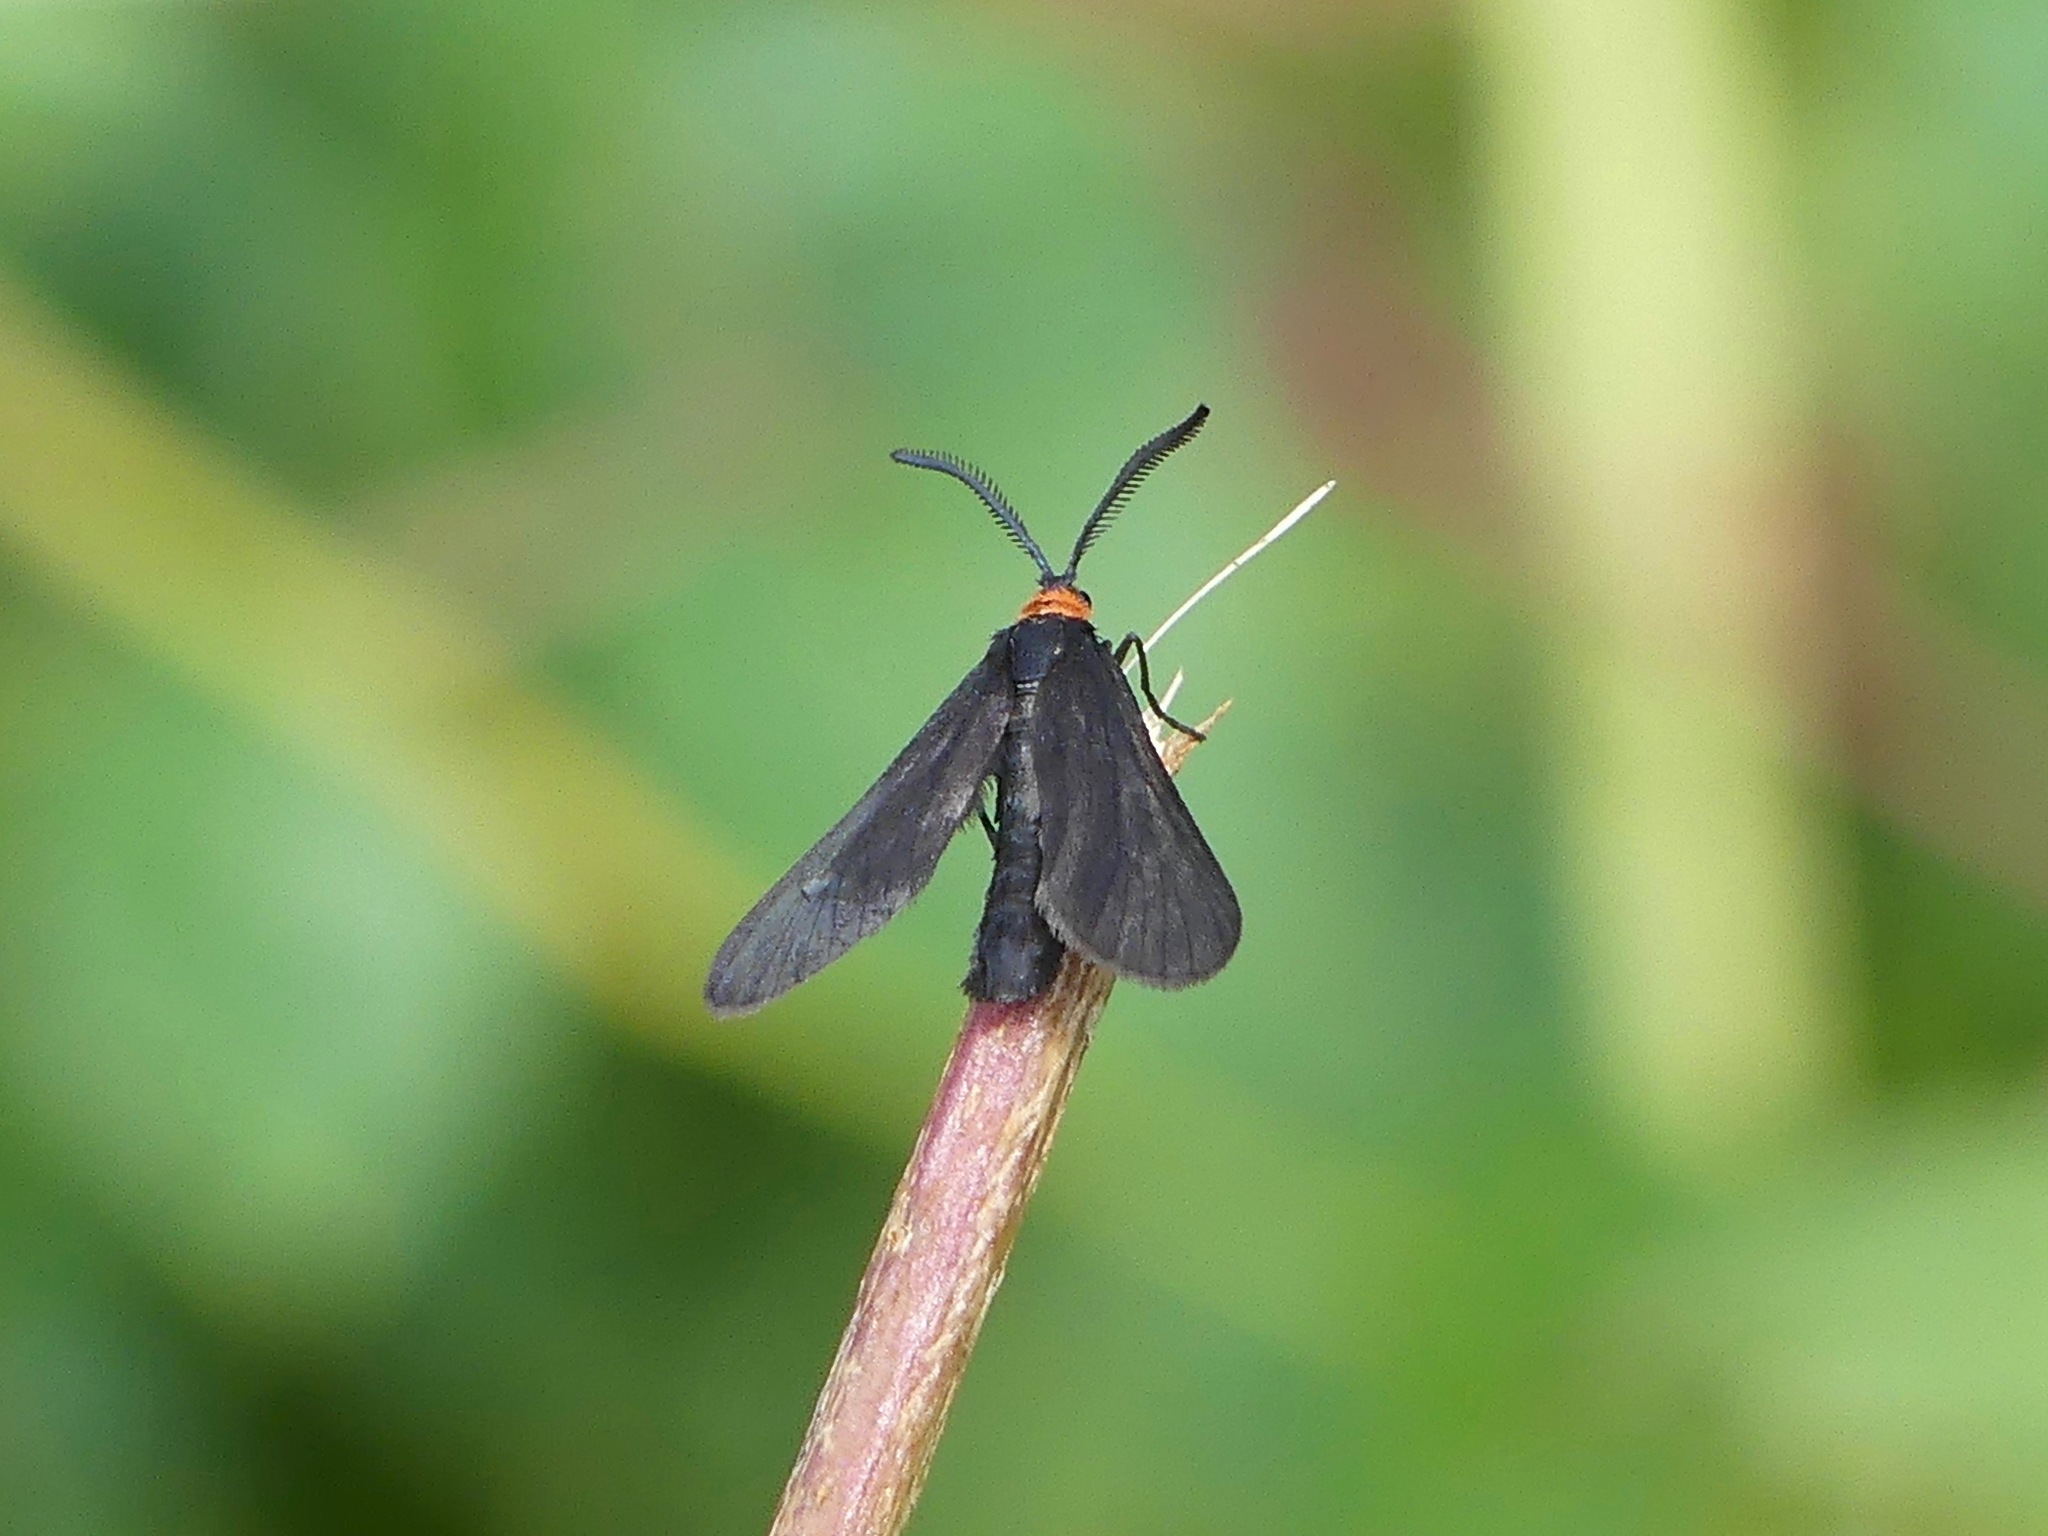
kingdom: Animalia
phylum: Arthropoda
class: Insecta
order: Lepidoptera
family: Zygaenidae
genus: Harrisina
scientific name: Harrisina americana
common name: Grapeleaf skeletonizer moth
